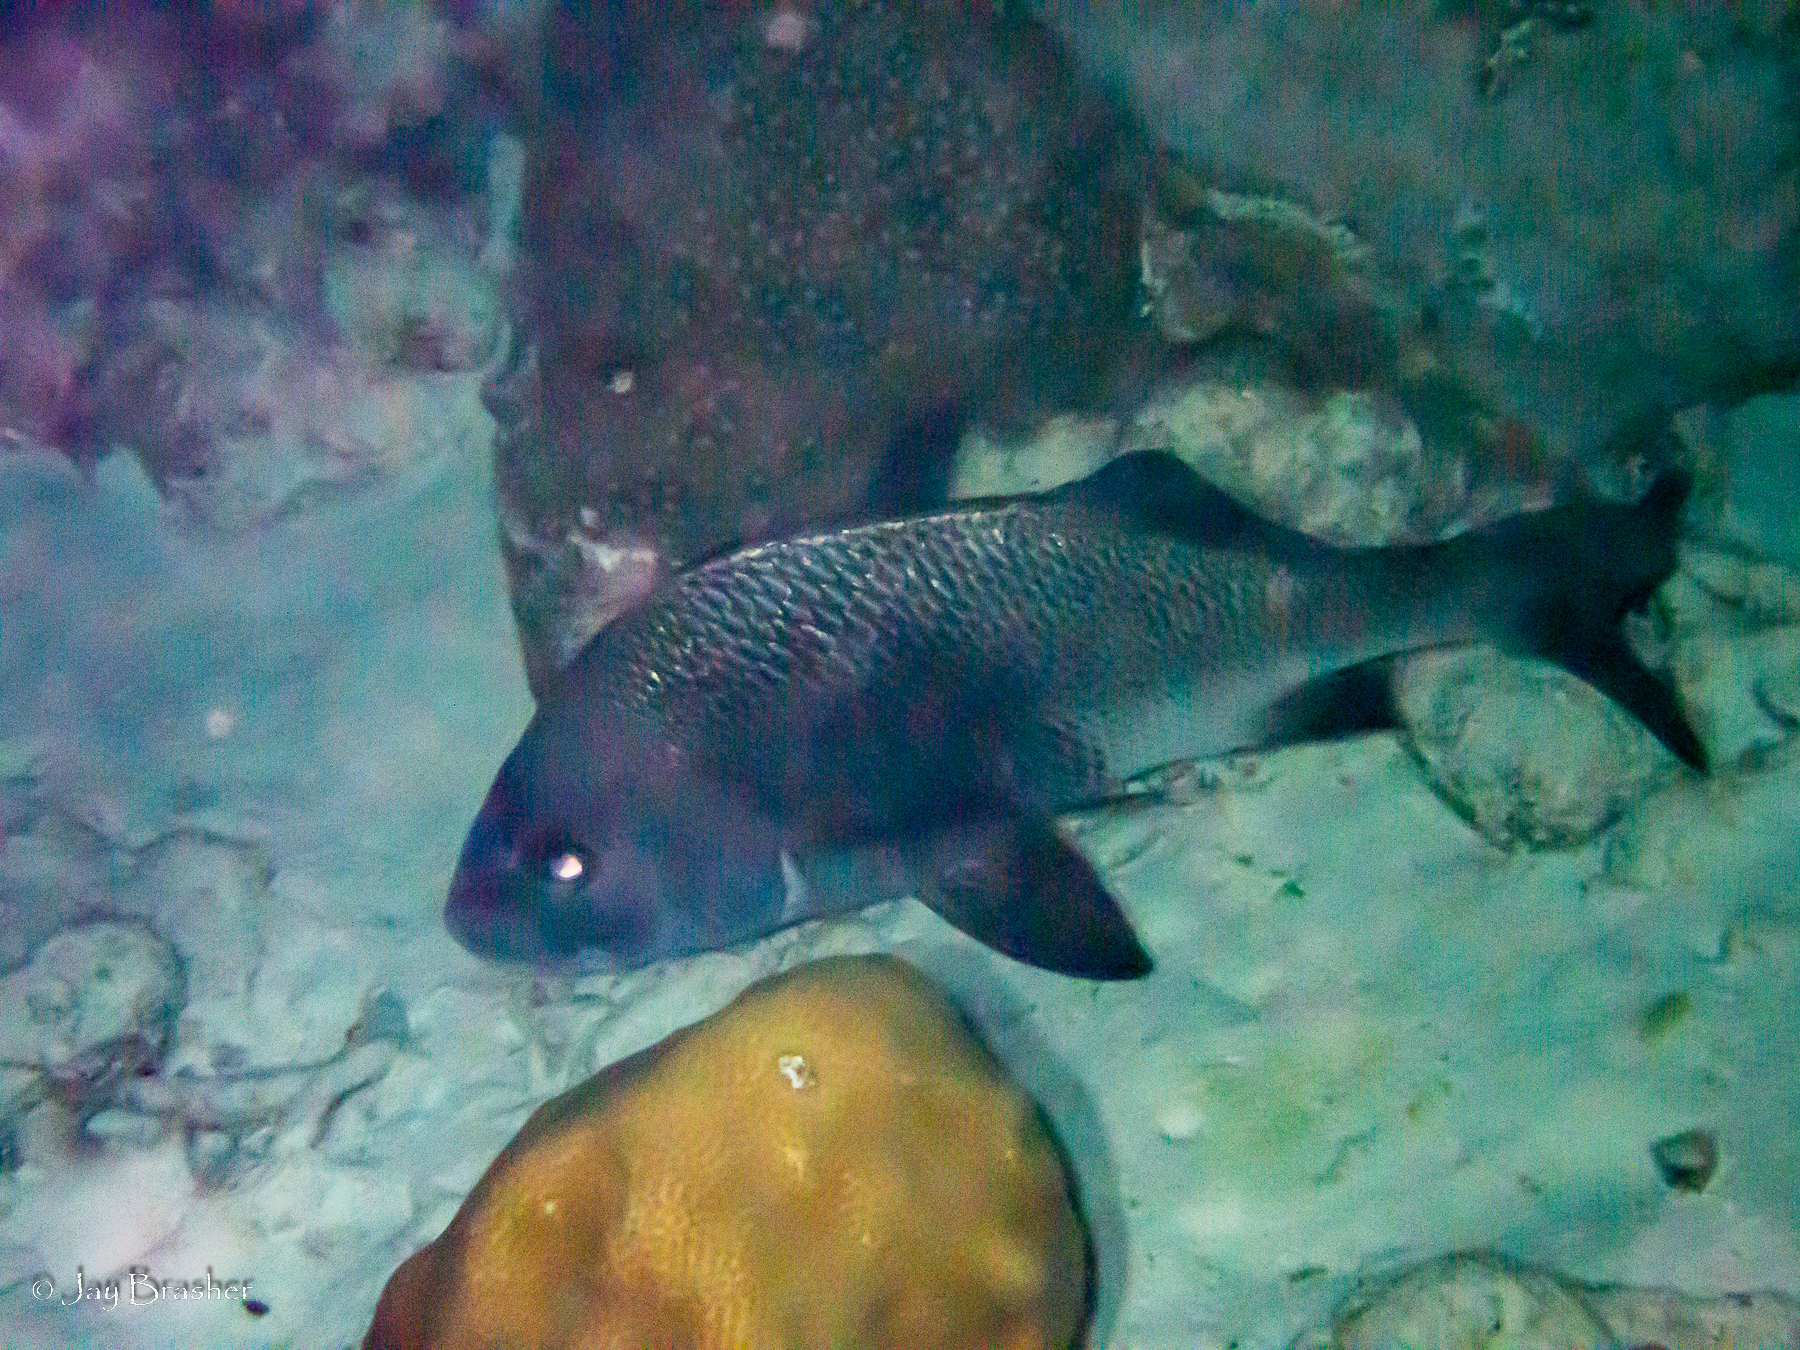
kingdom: Animalia
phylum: Chordata
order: Perciformes
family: Haemulidae
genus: Anisotremus
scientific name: Anisotremus surinamensis
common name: Black margate
